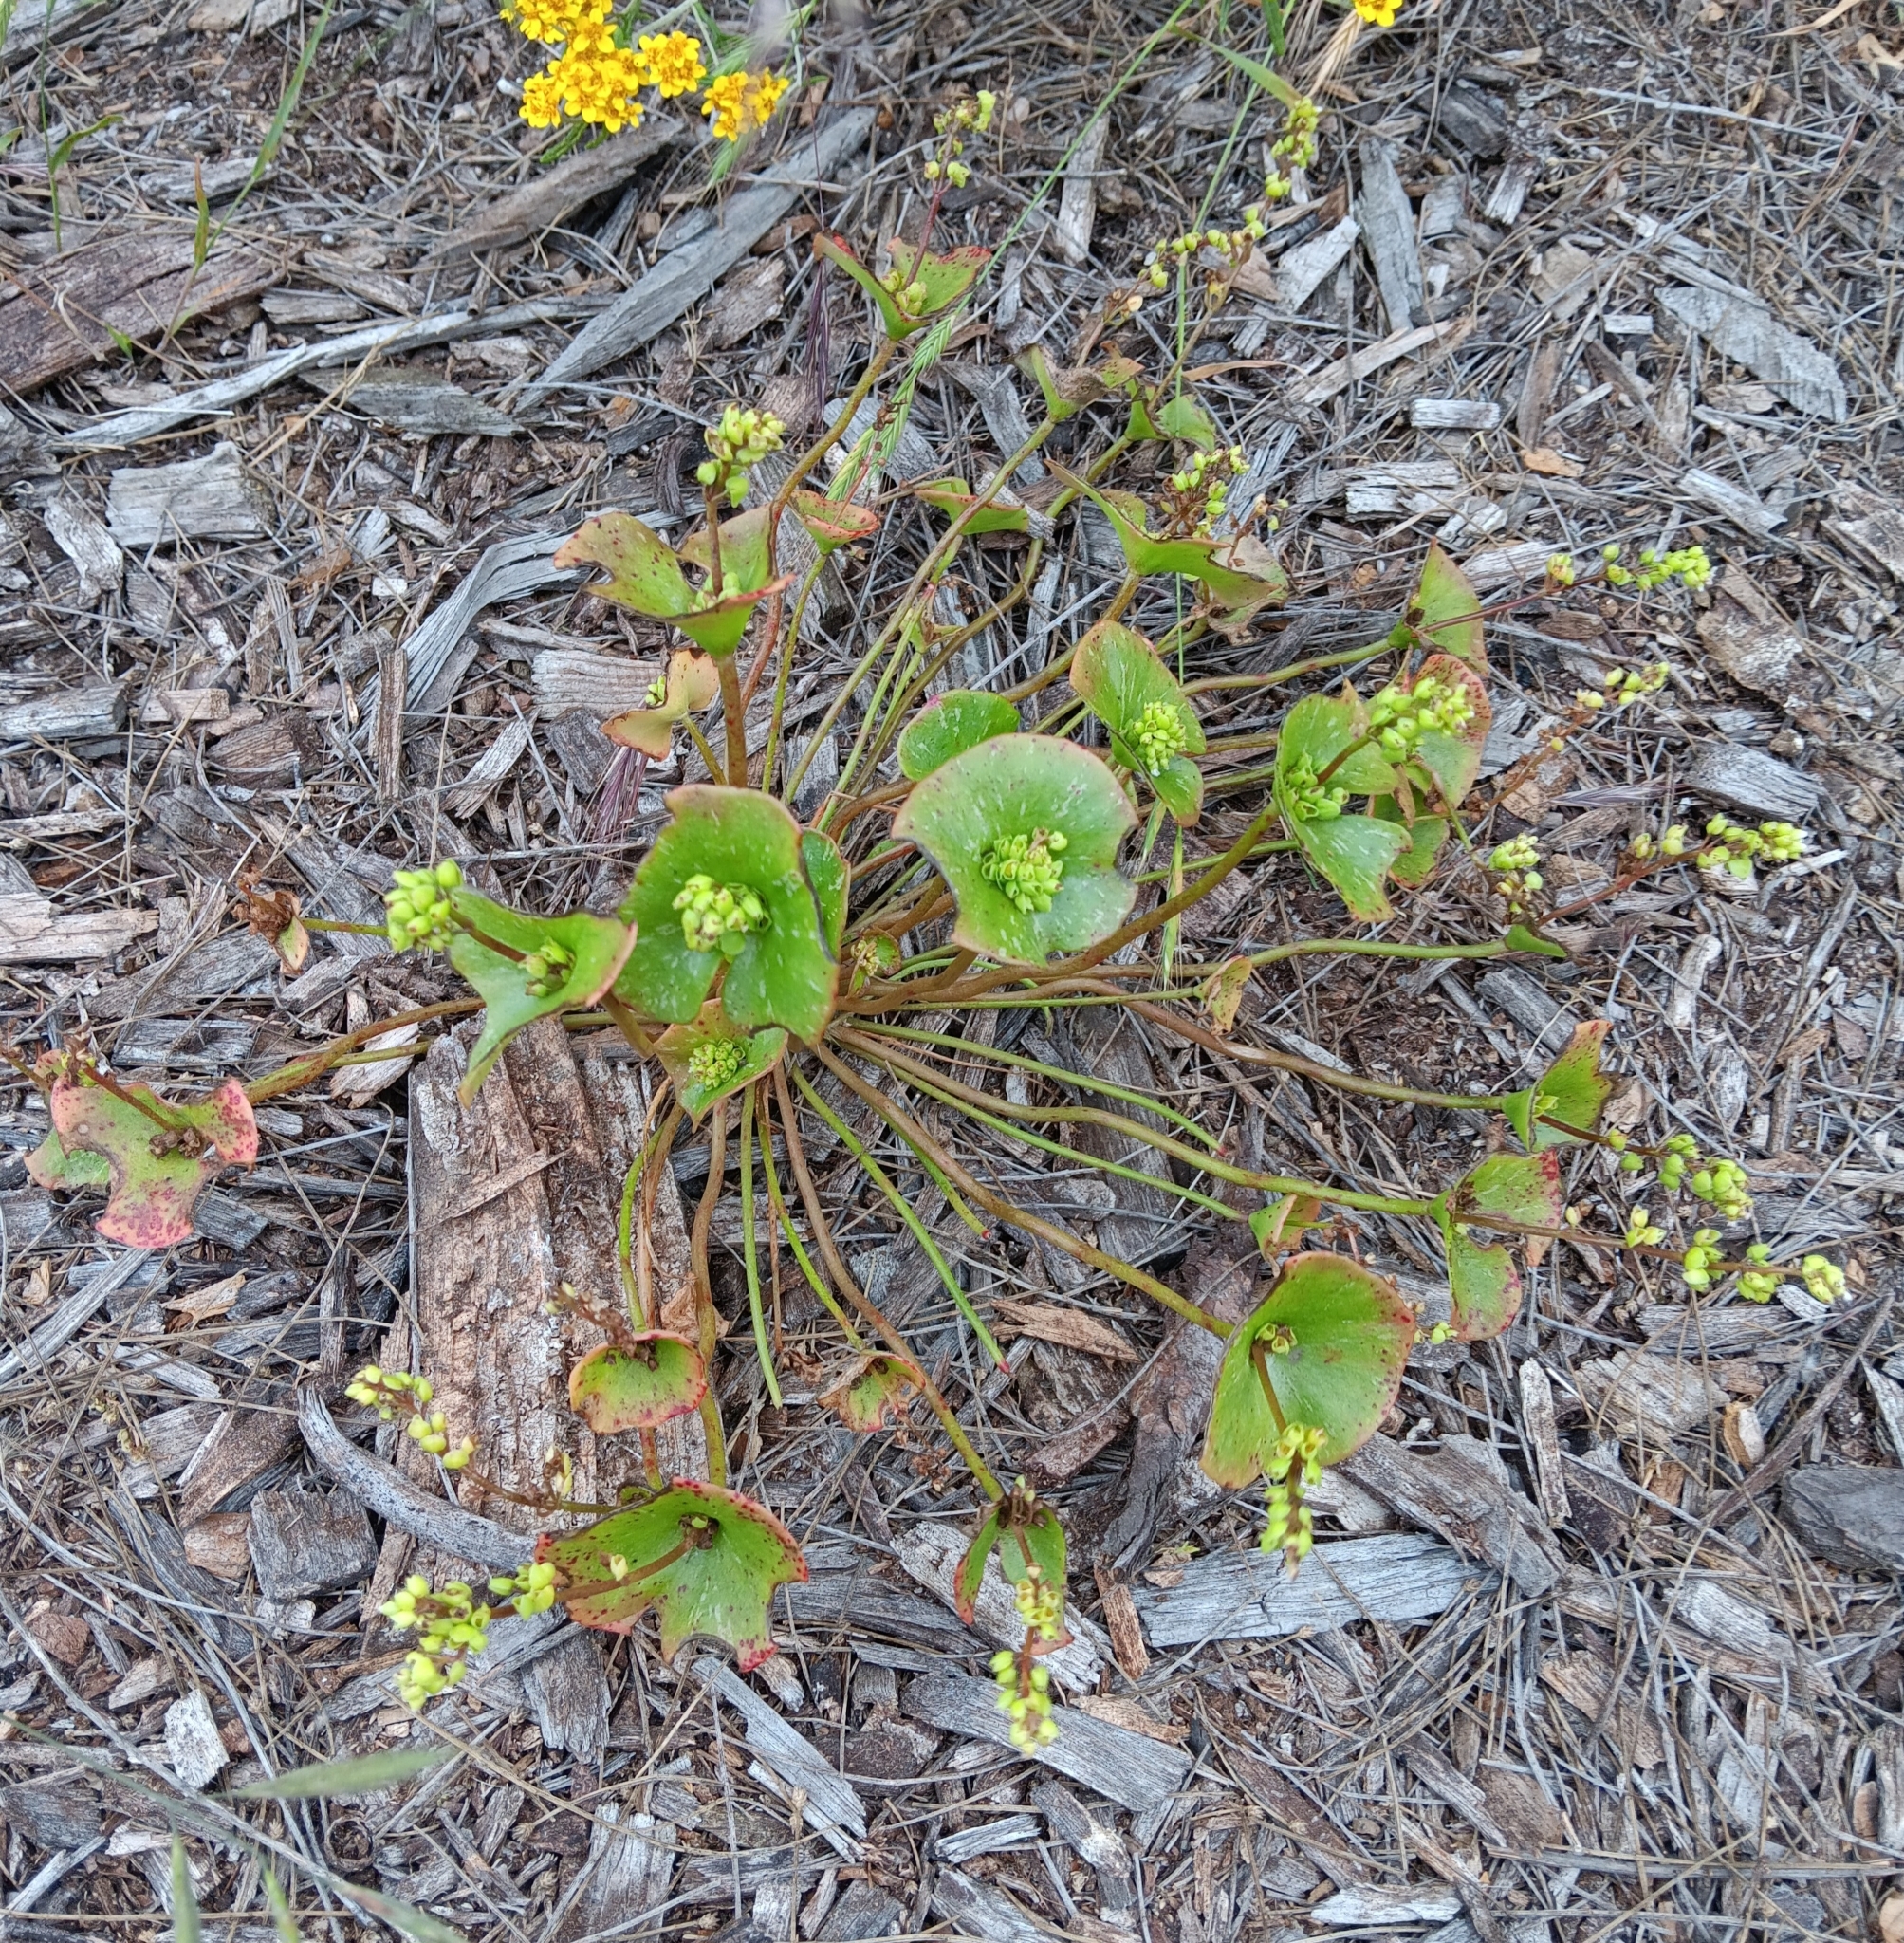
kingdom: Plantae
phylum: Tracheophyta
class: Magnoliopsida
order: Caryophyllales
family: Montiaceae
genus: Claytonia
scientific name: Claytonia perfoliata
